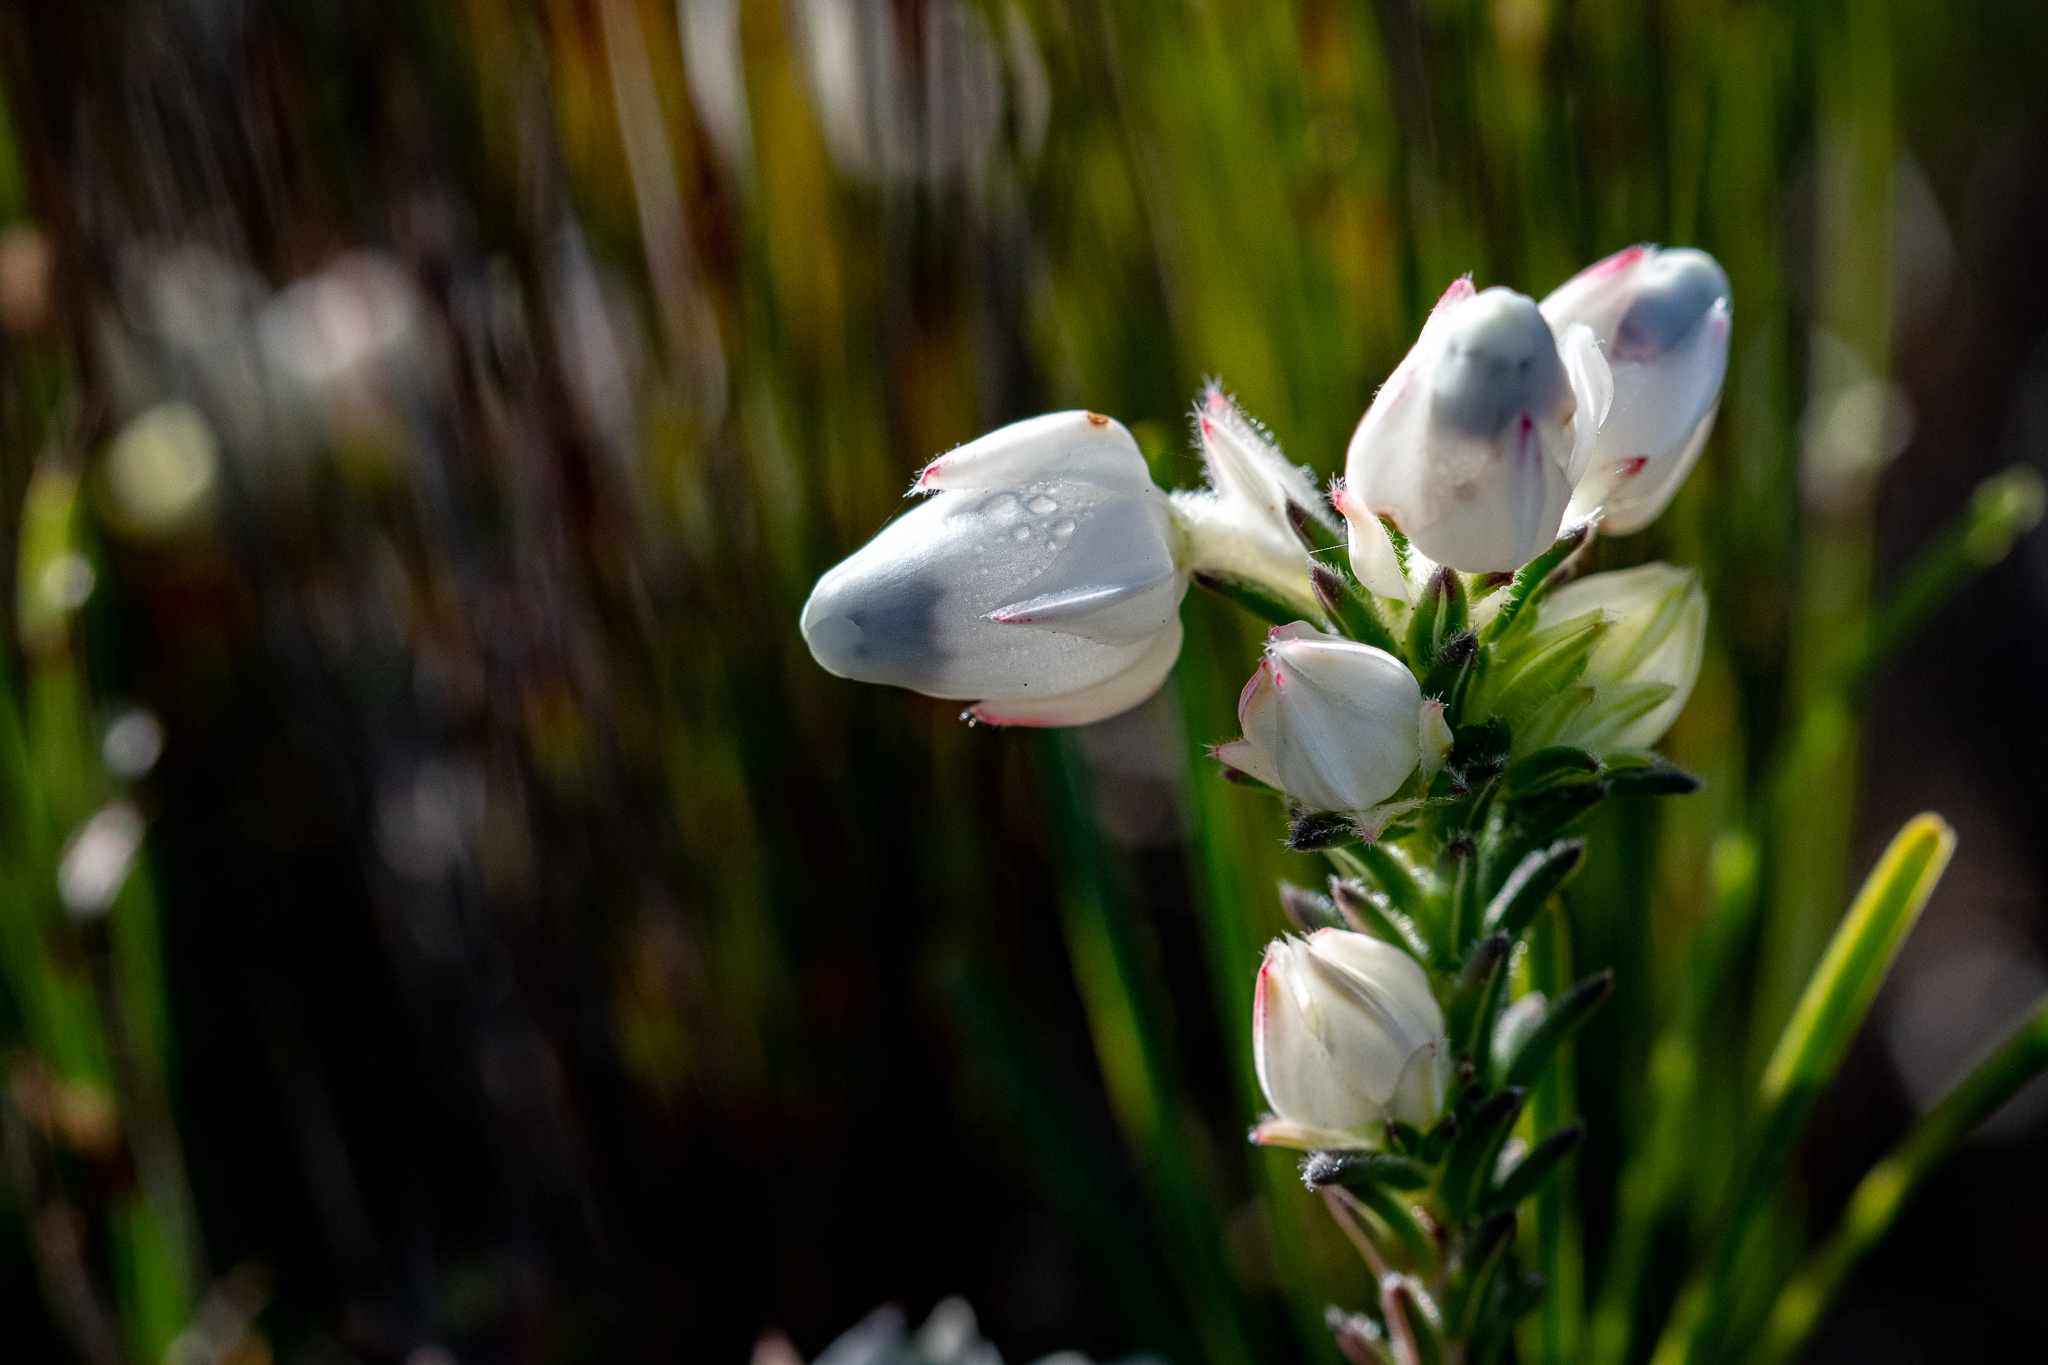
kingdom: Plantae
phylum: Tracheophyta
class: Magnoliopsida
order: Ericales
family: Ericaceae
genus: Erica
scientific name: Erica calcareophila
